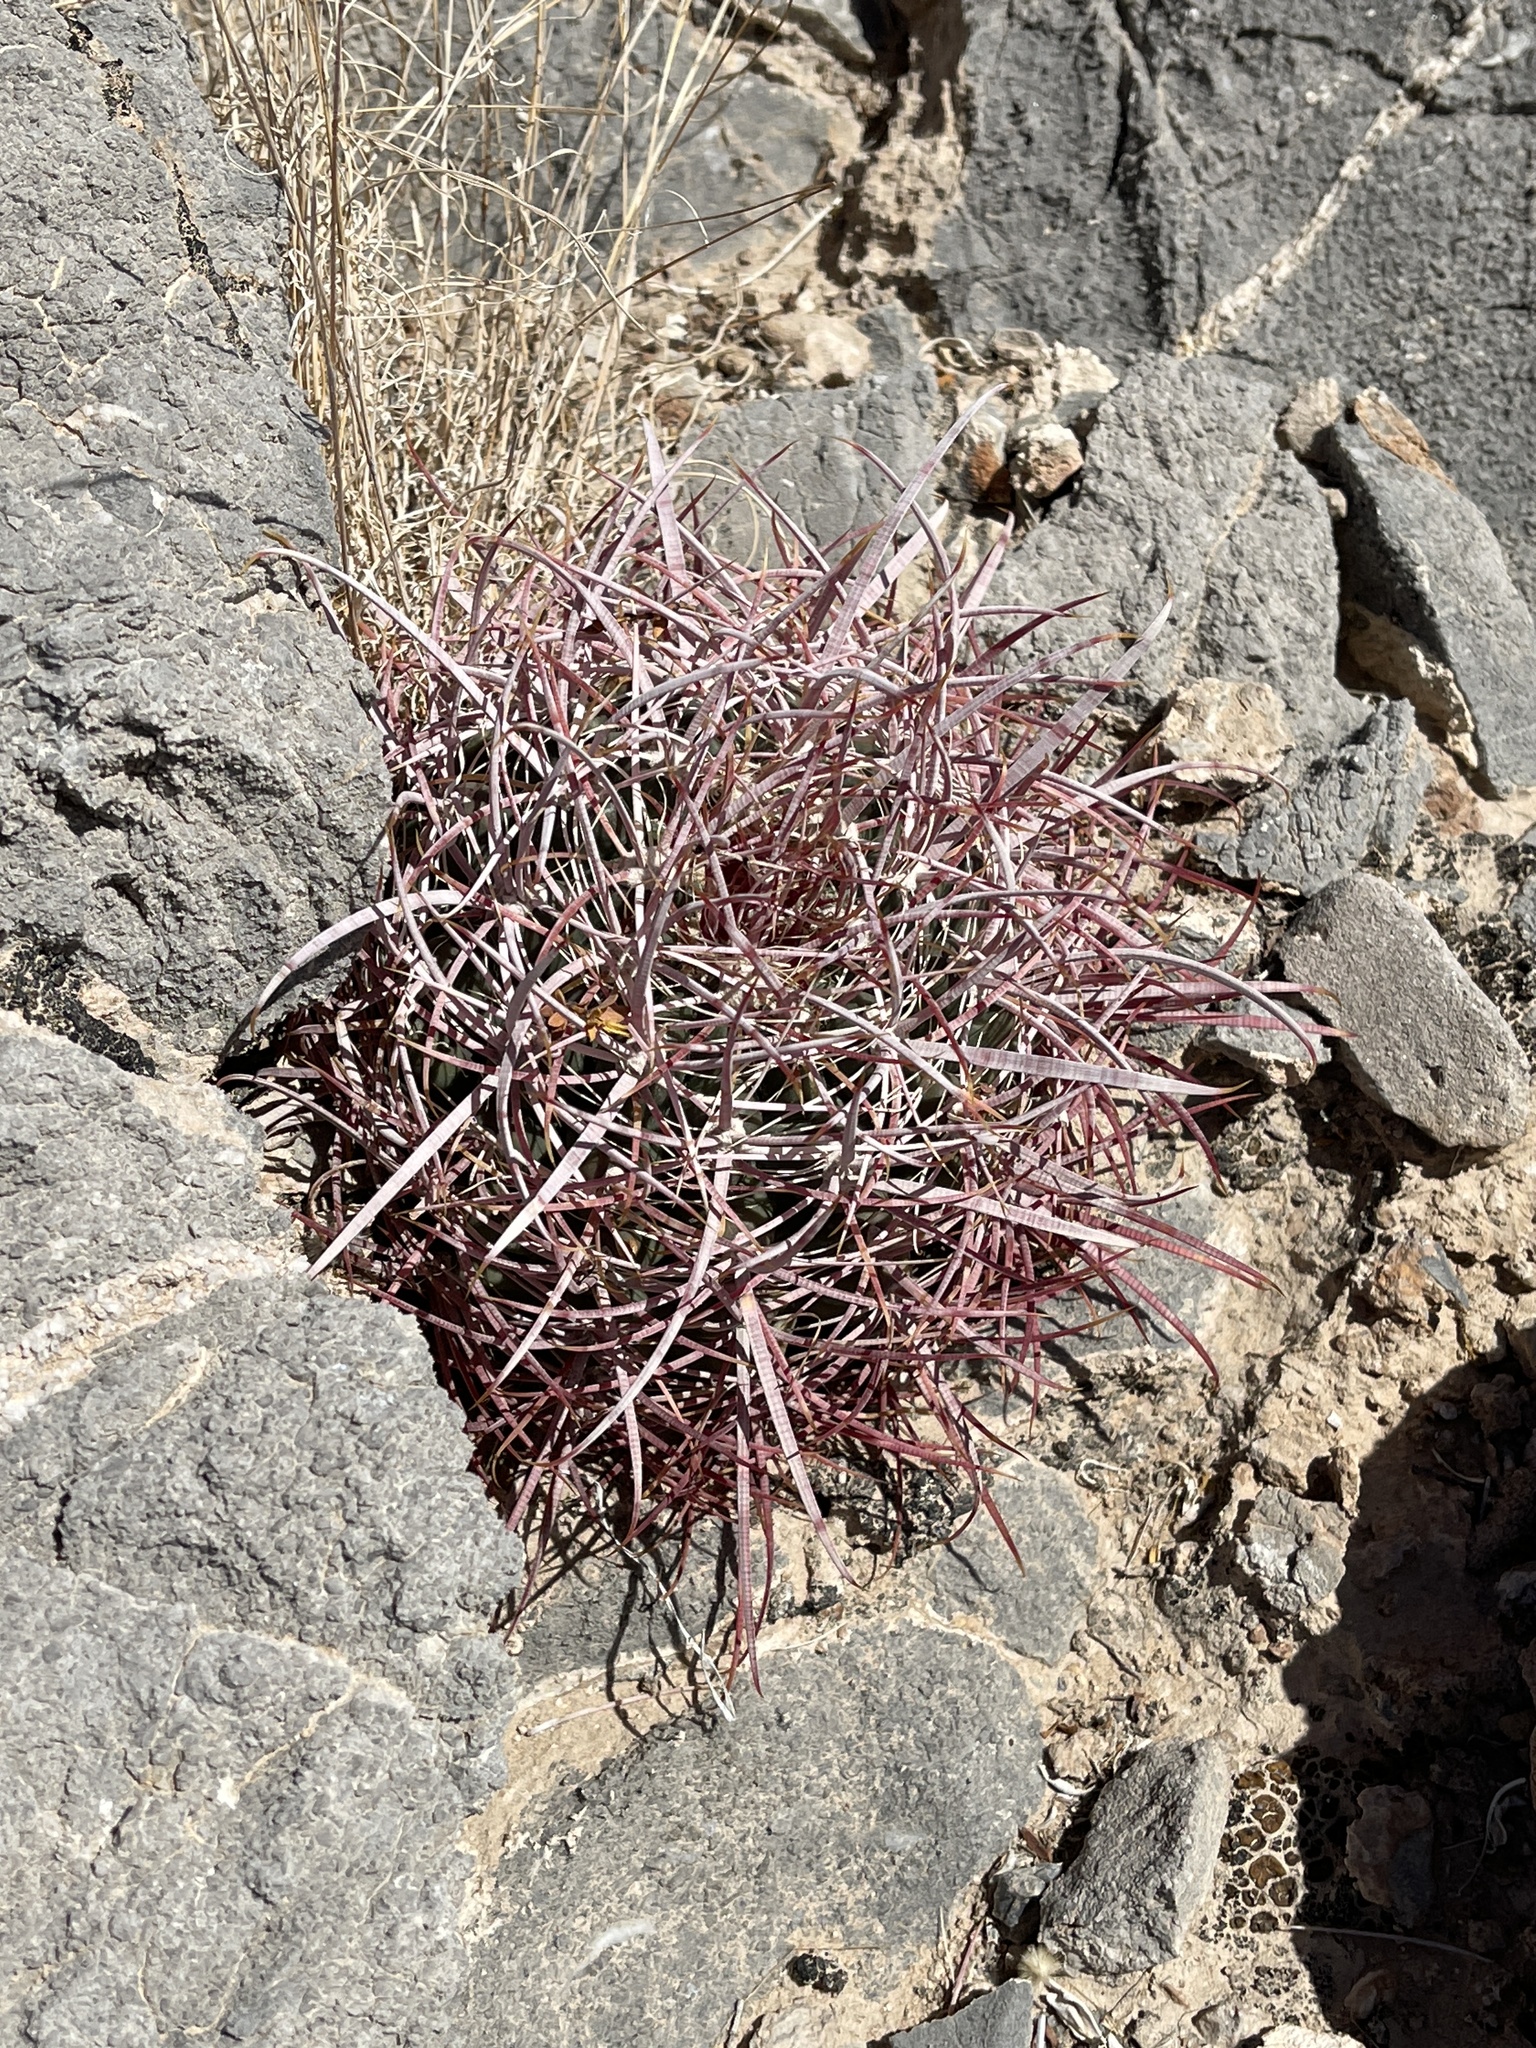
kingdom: Plantae
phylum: Tracheophyta
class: Magnoliopsida
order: Caryophyllales
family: Cactaceae
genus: Ferocactus
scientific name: Ferocactus cylindraceus
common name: California barrel cactus
